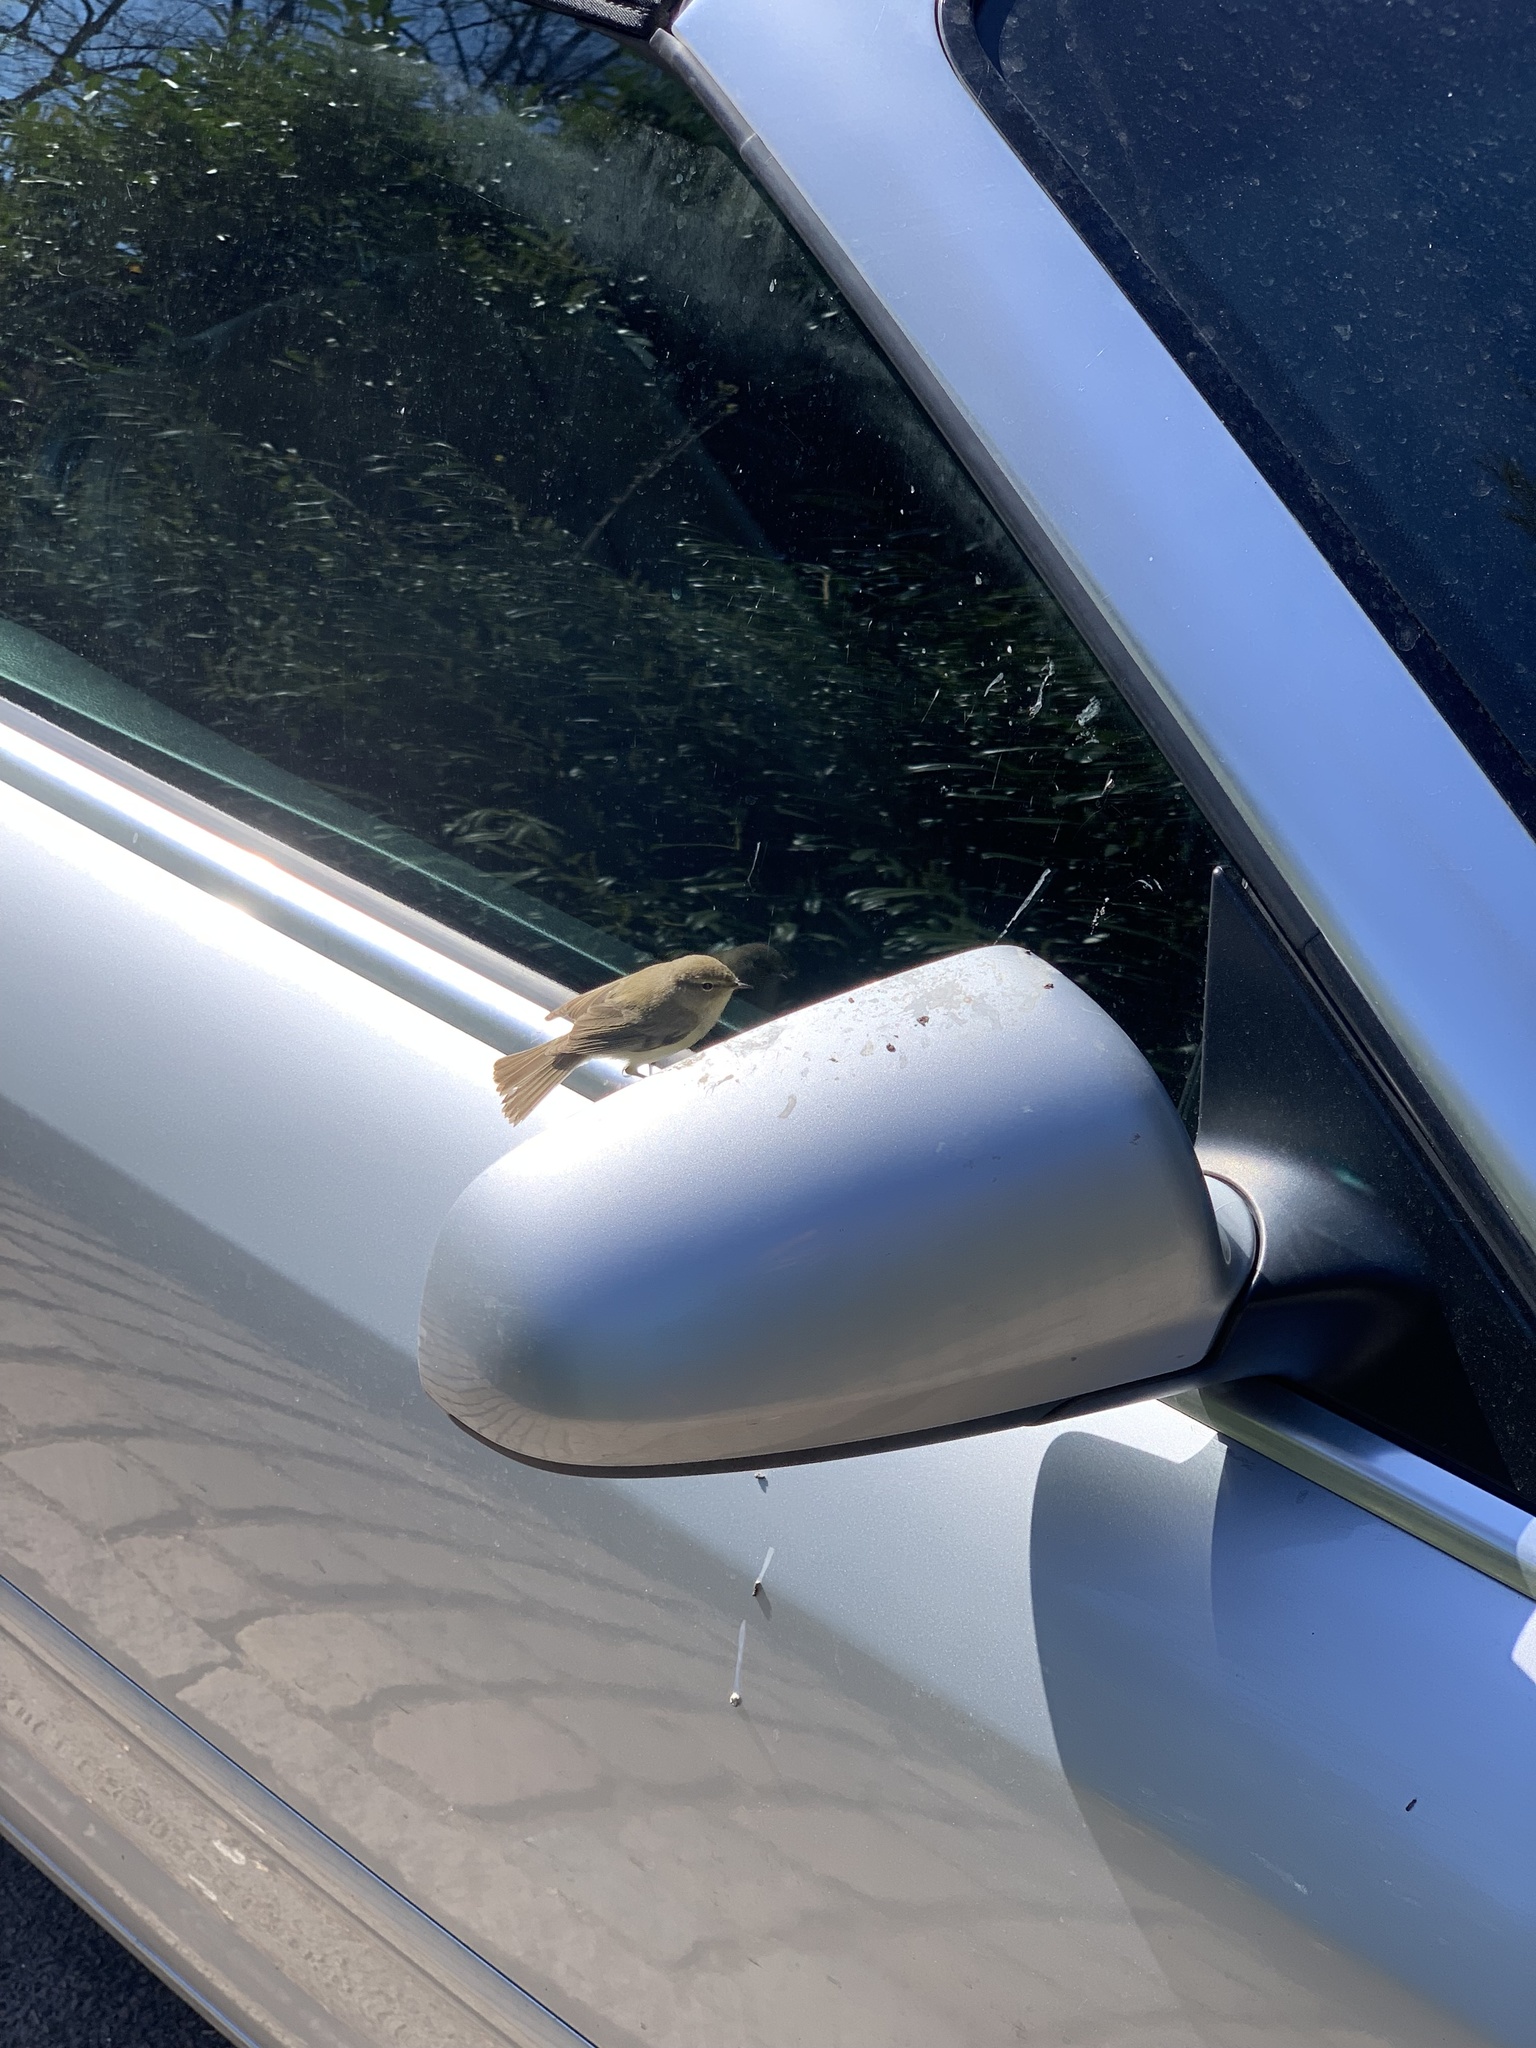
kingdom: Animalia
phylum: Chordata
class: Aves
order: Passeriformes
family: Phylloscopidae
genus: Phylloscopus
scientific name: Phylloscopus collybita
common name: Common chiffchaff
